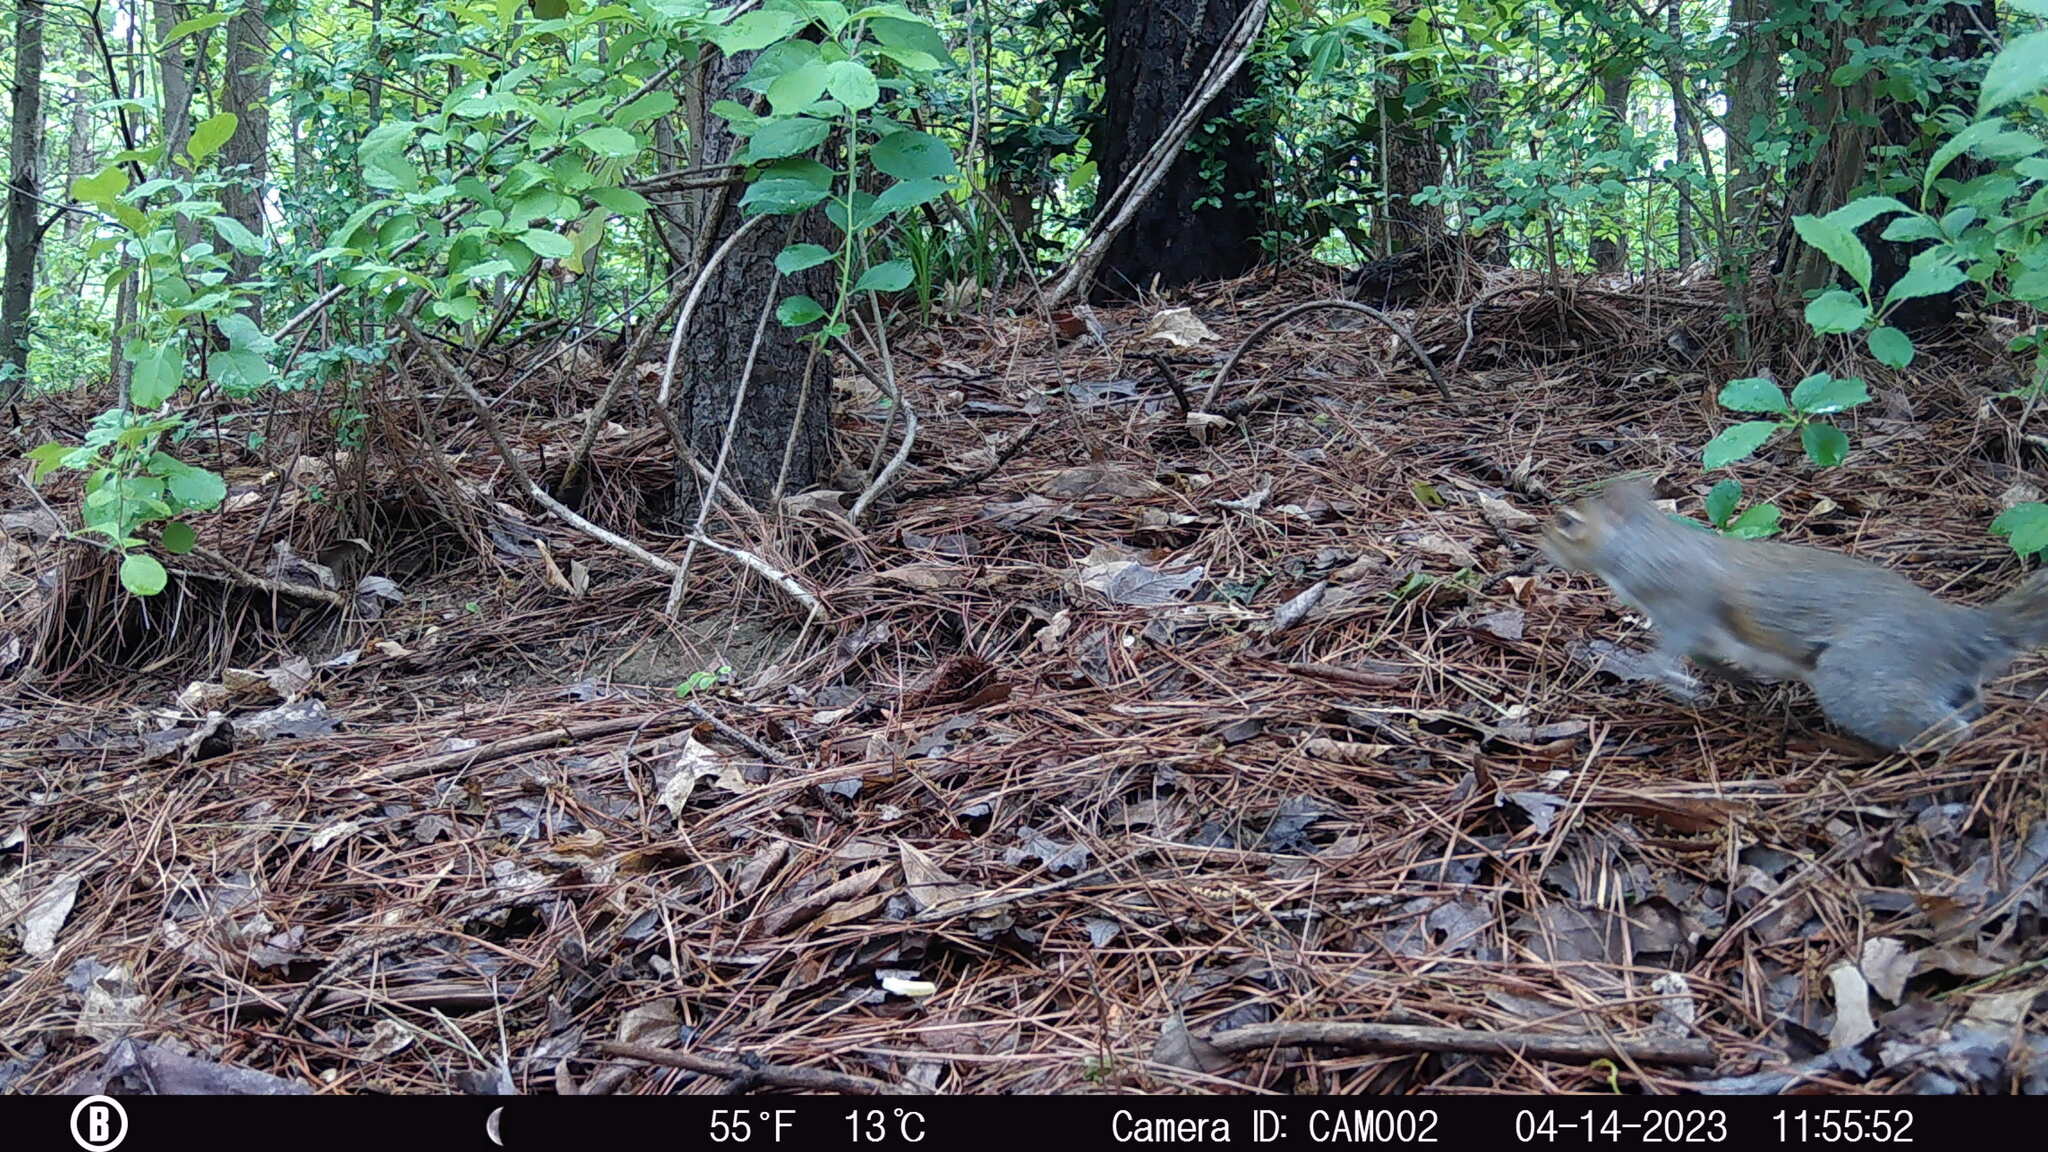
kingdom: Animalia
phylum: Chordata
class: Mammalia
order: Rodentia
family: Sciuridae
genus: Sciurus
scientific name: Sciurus carolinensis
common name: Eastern gray squirrel
